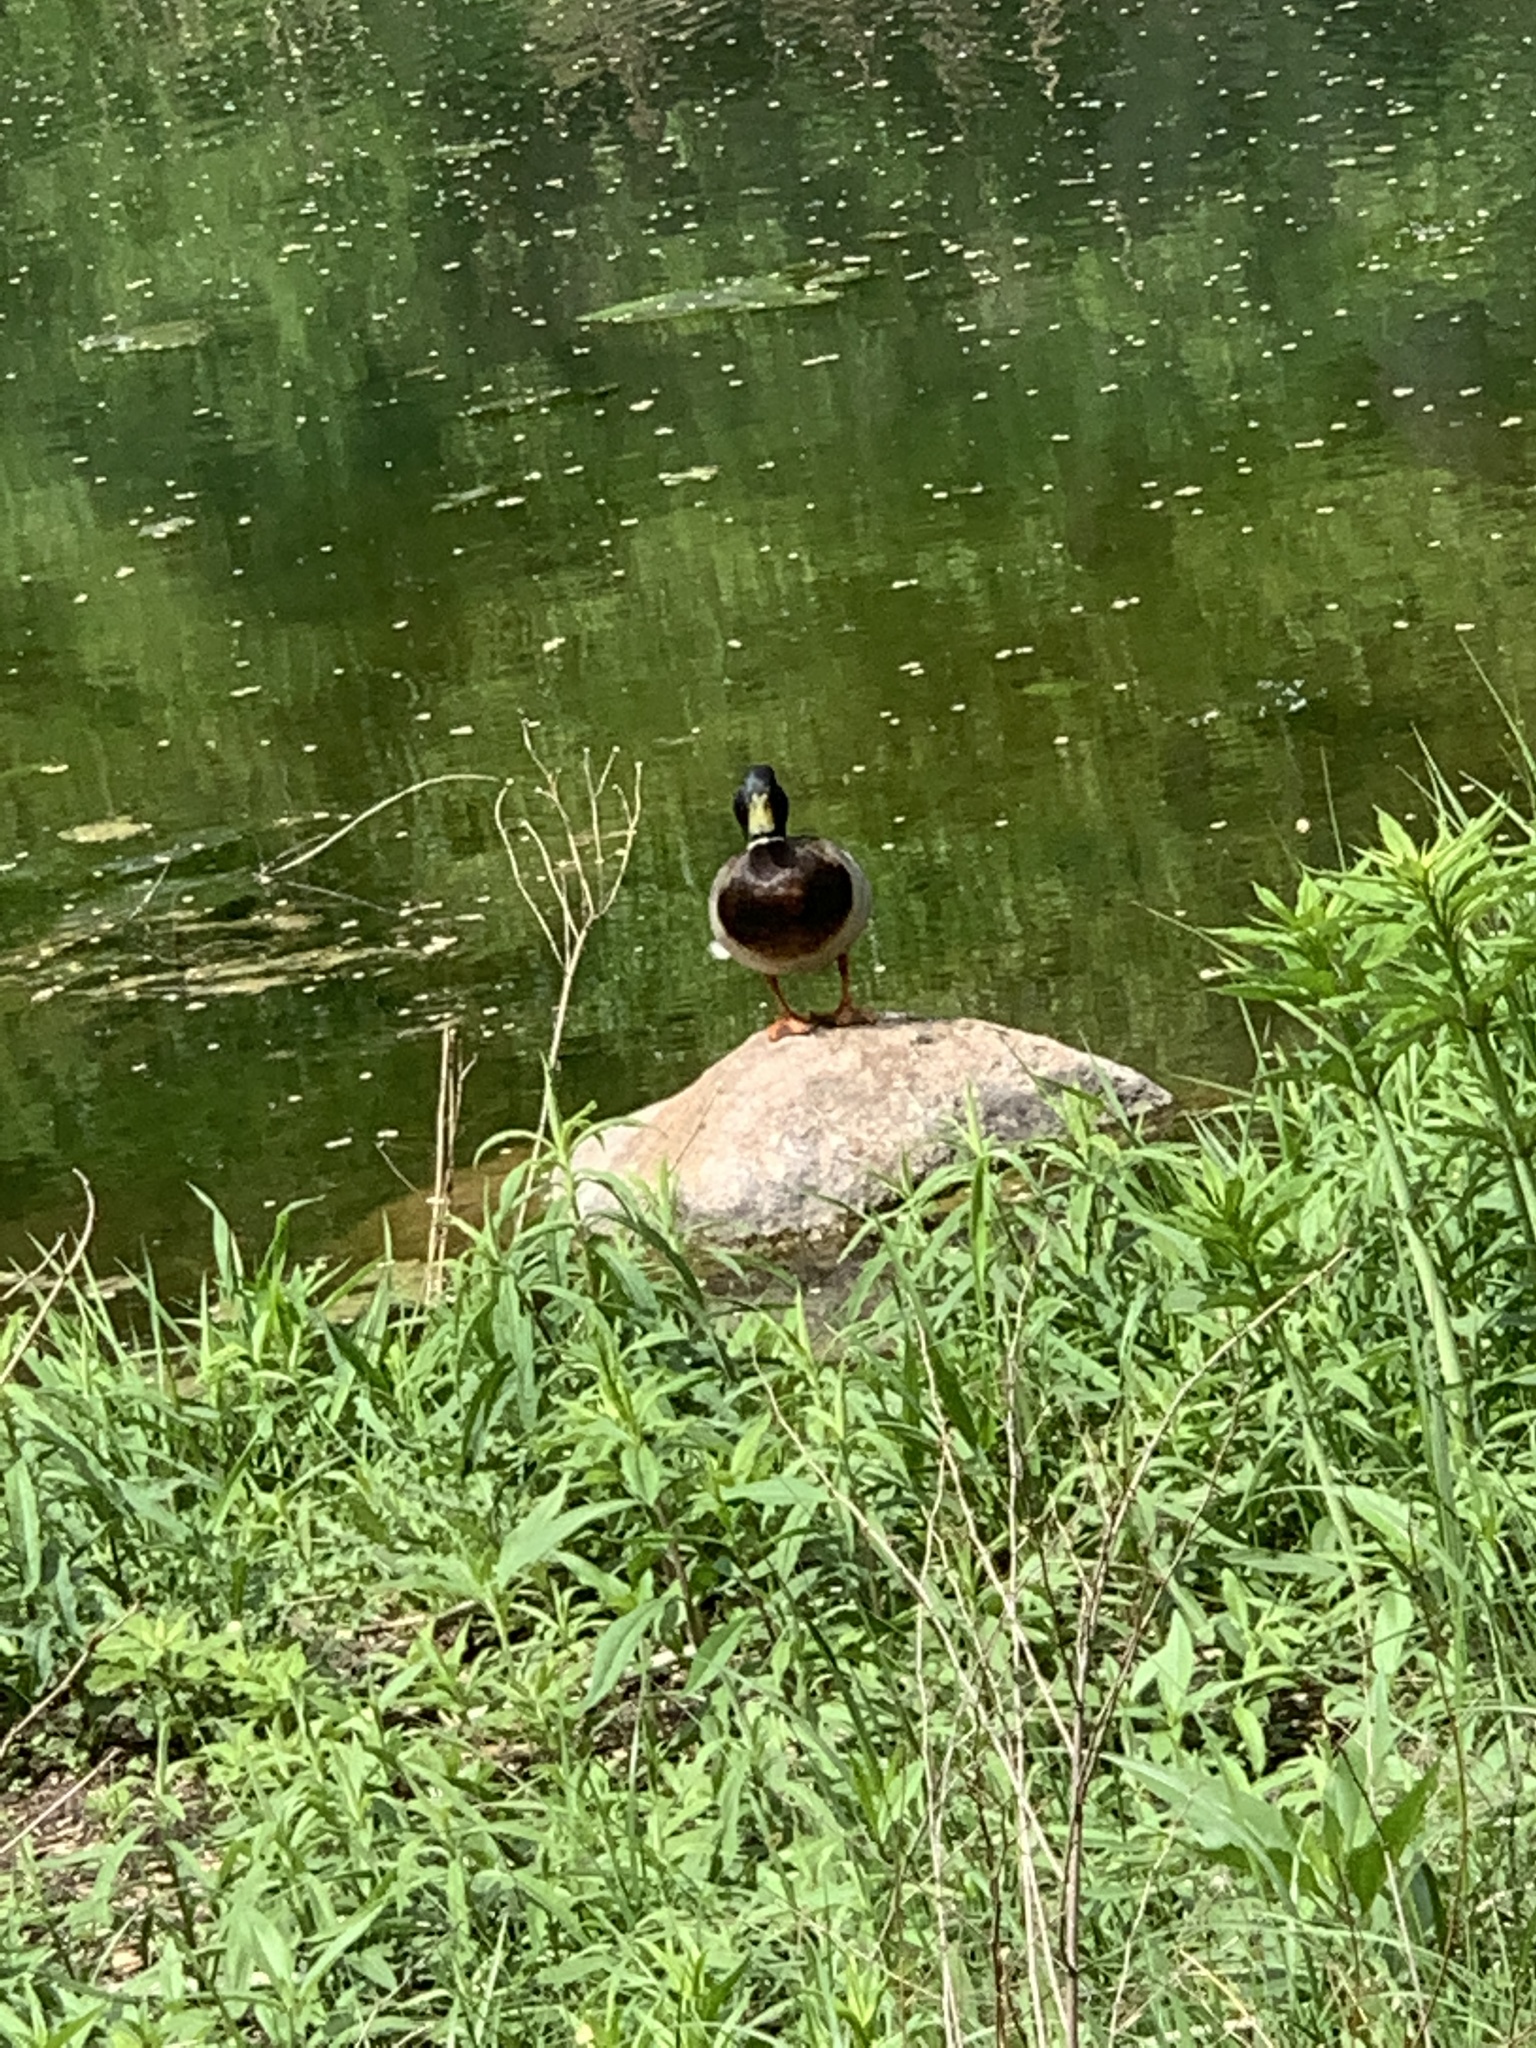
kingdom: Animalia
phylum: Chordata
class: Aves
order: Anseriformes
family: Anatidae
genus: Anas
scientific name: Anas platyrhynchos
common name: Mallard
